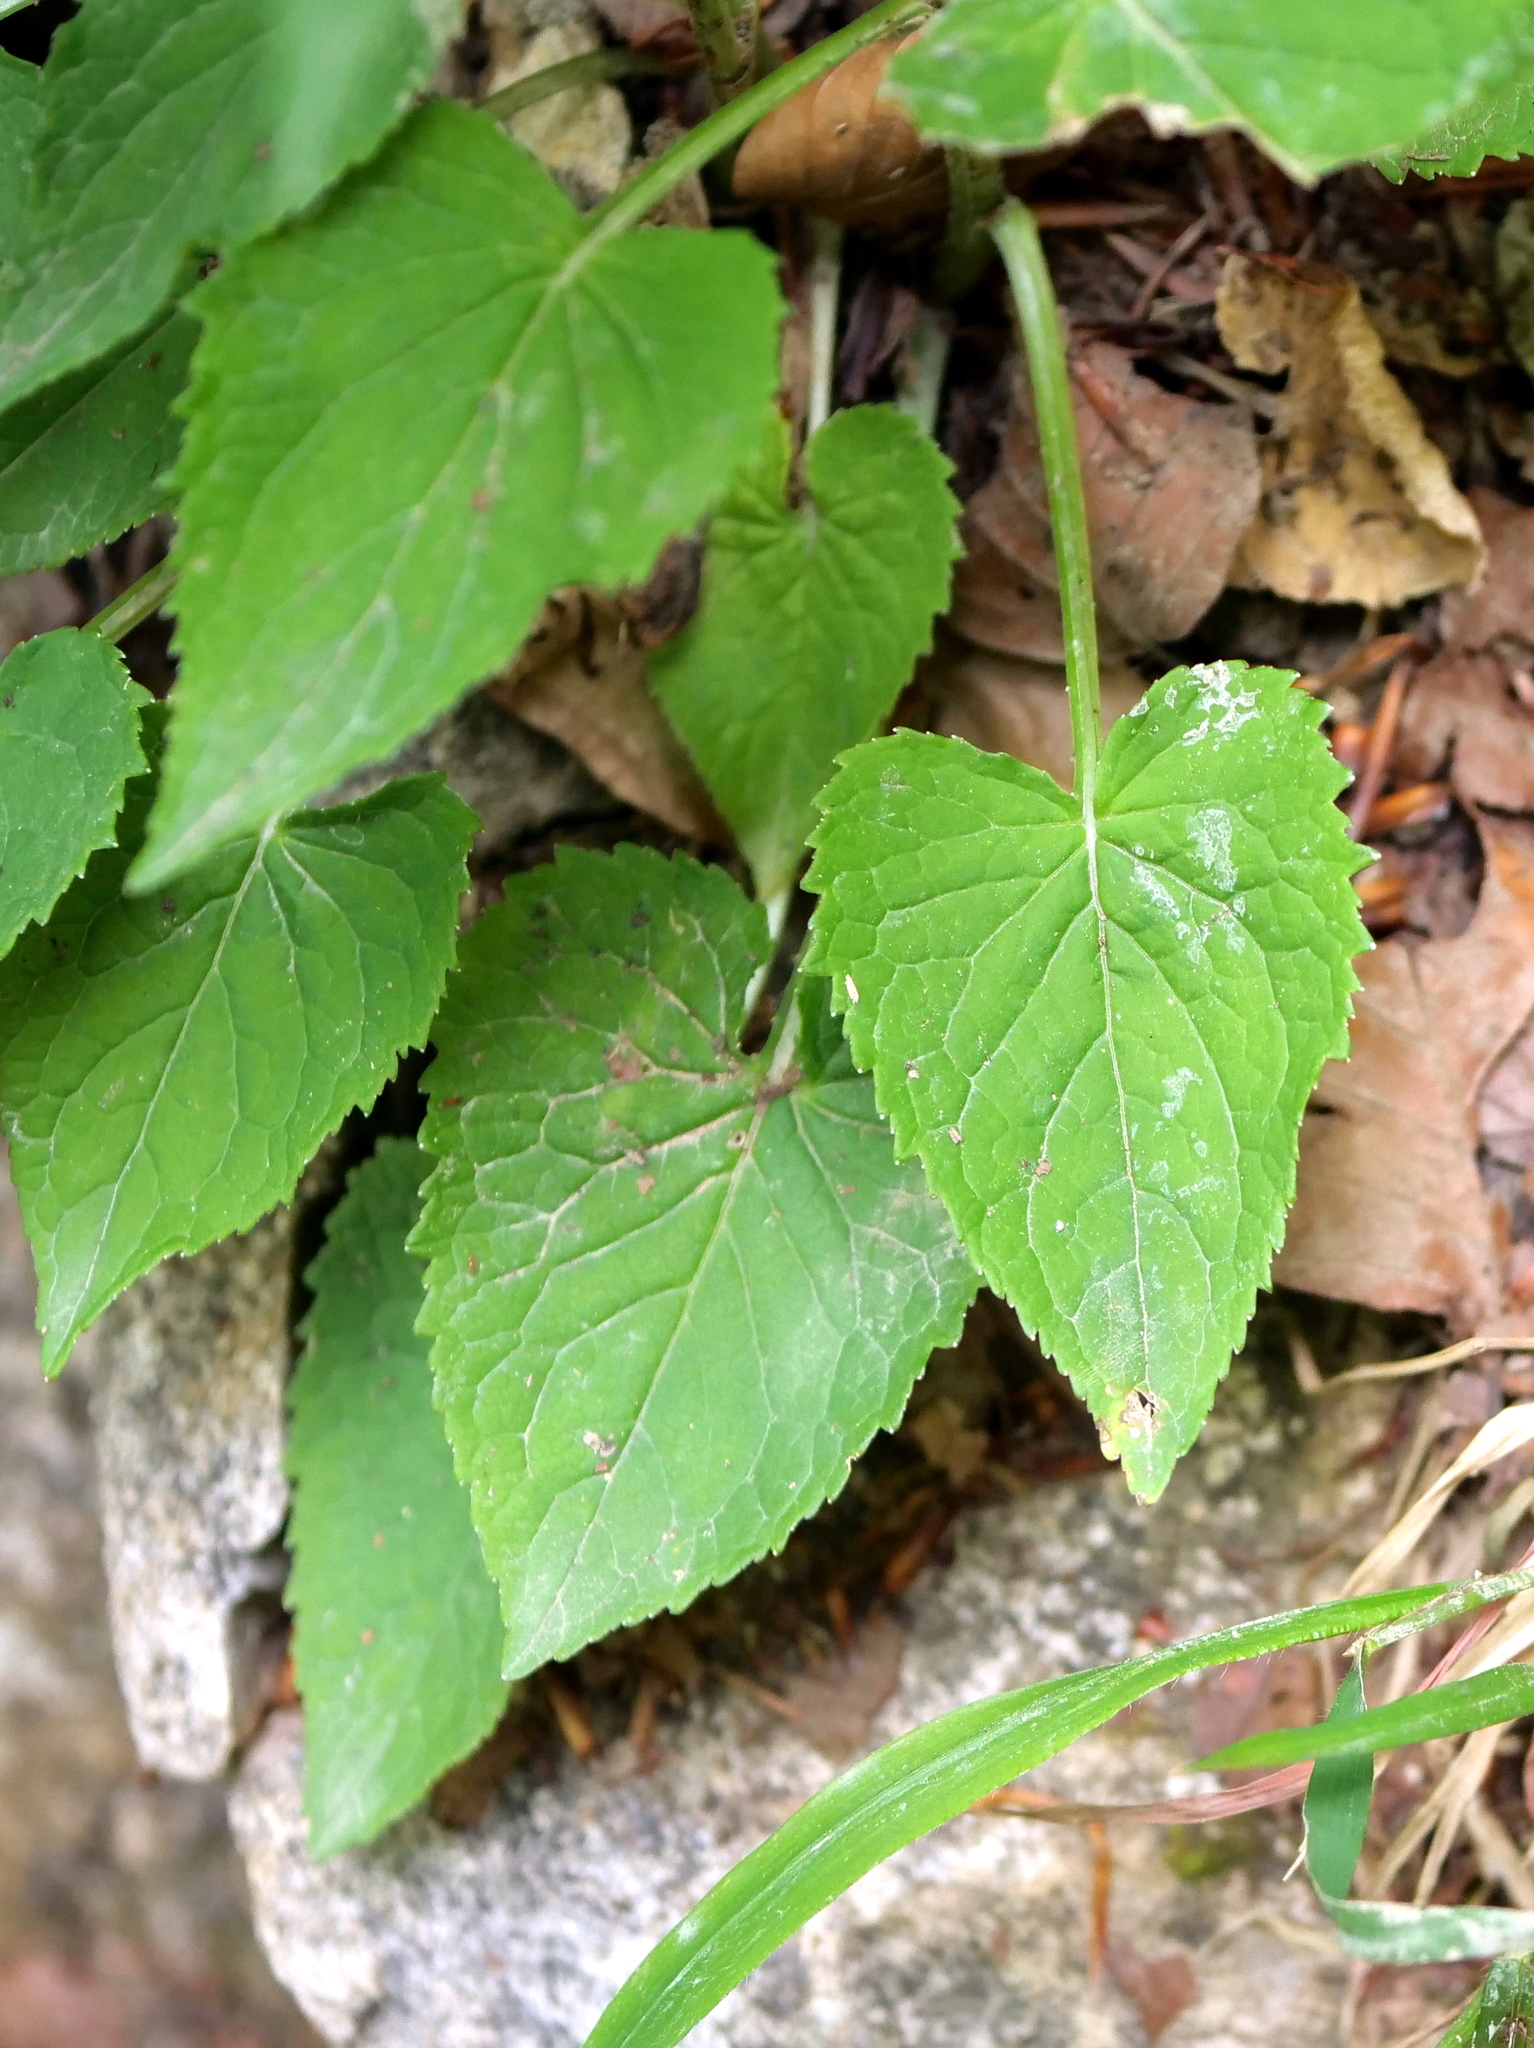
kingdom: Plantae
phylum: Tracheophyta
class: Magnoliopsida
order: Asterales
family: Campanulaceae
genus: Phyteuma
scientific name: Phyteuma spicatum
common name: Spiked rampion
